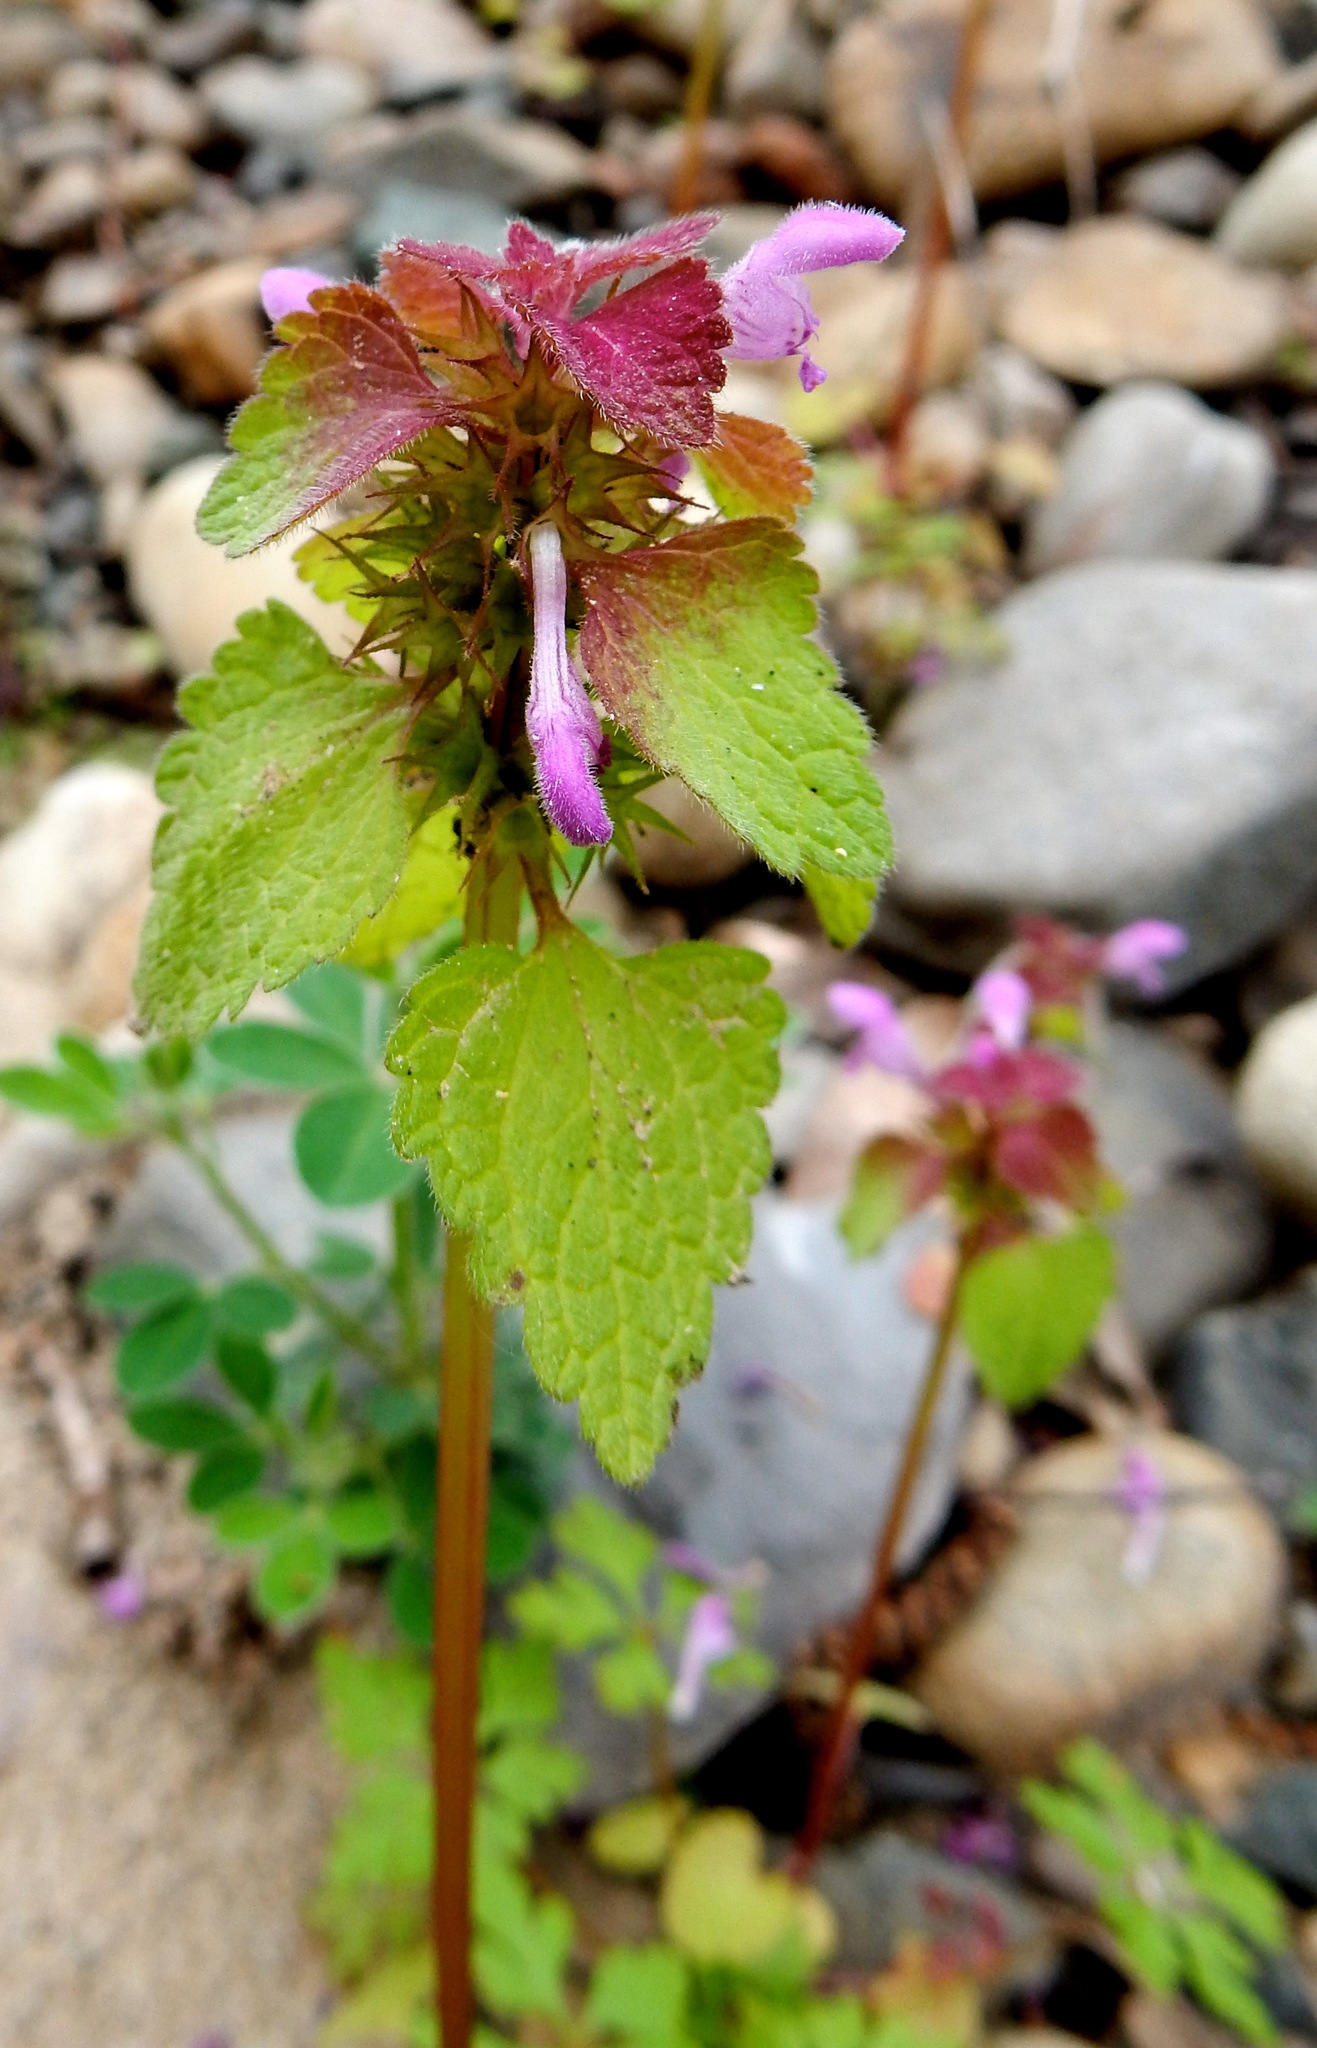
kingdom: Plantae
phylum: Tracheophyta
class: Magnoliopsida
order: Lamiales
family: Lamiaceae
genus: Lamium
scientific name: Lamium purpureum
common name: Red dead-nettle
